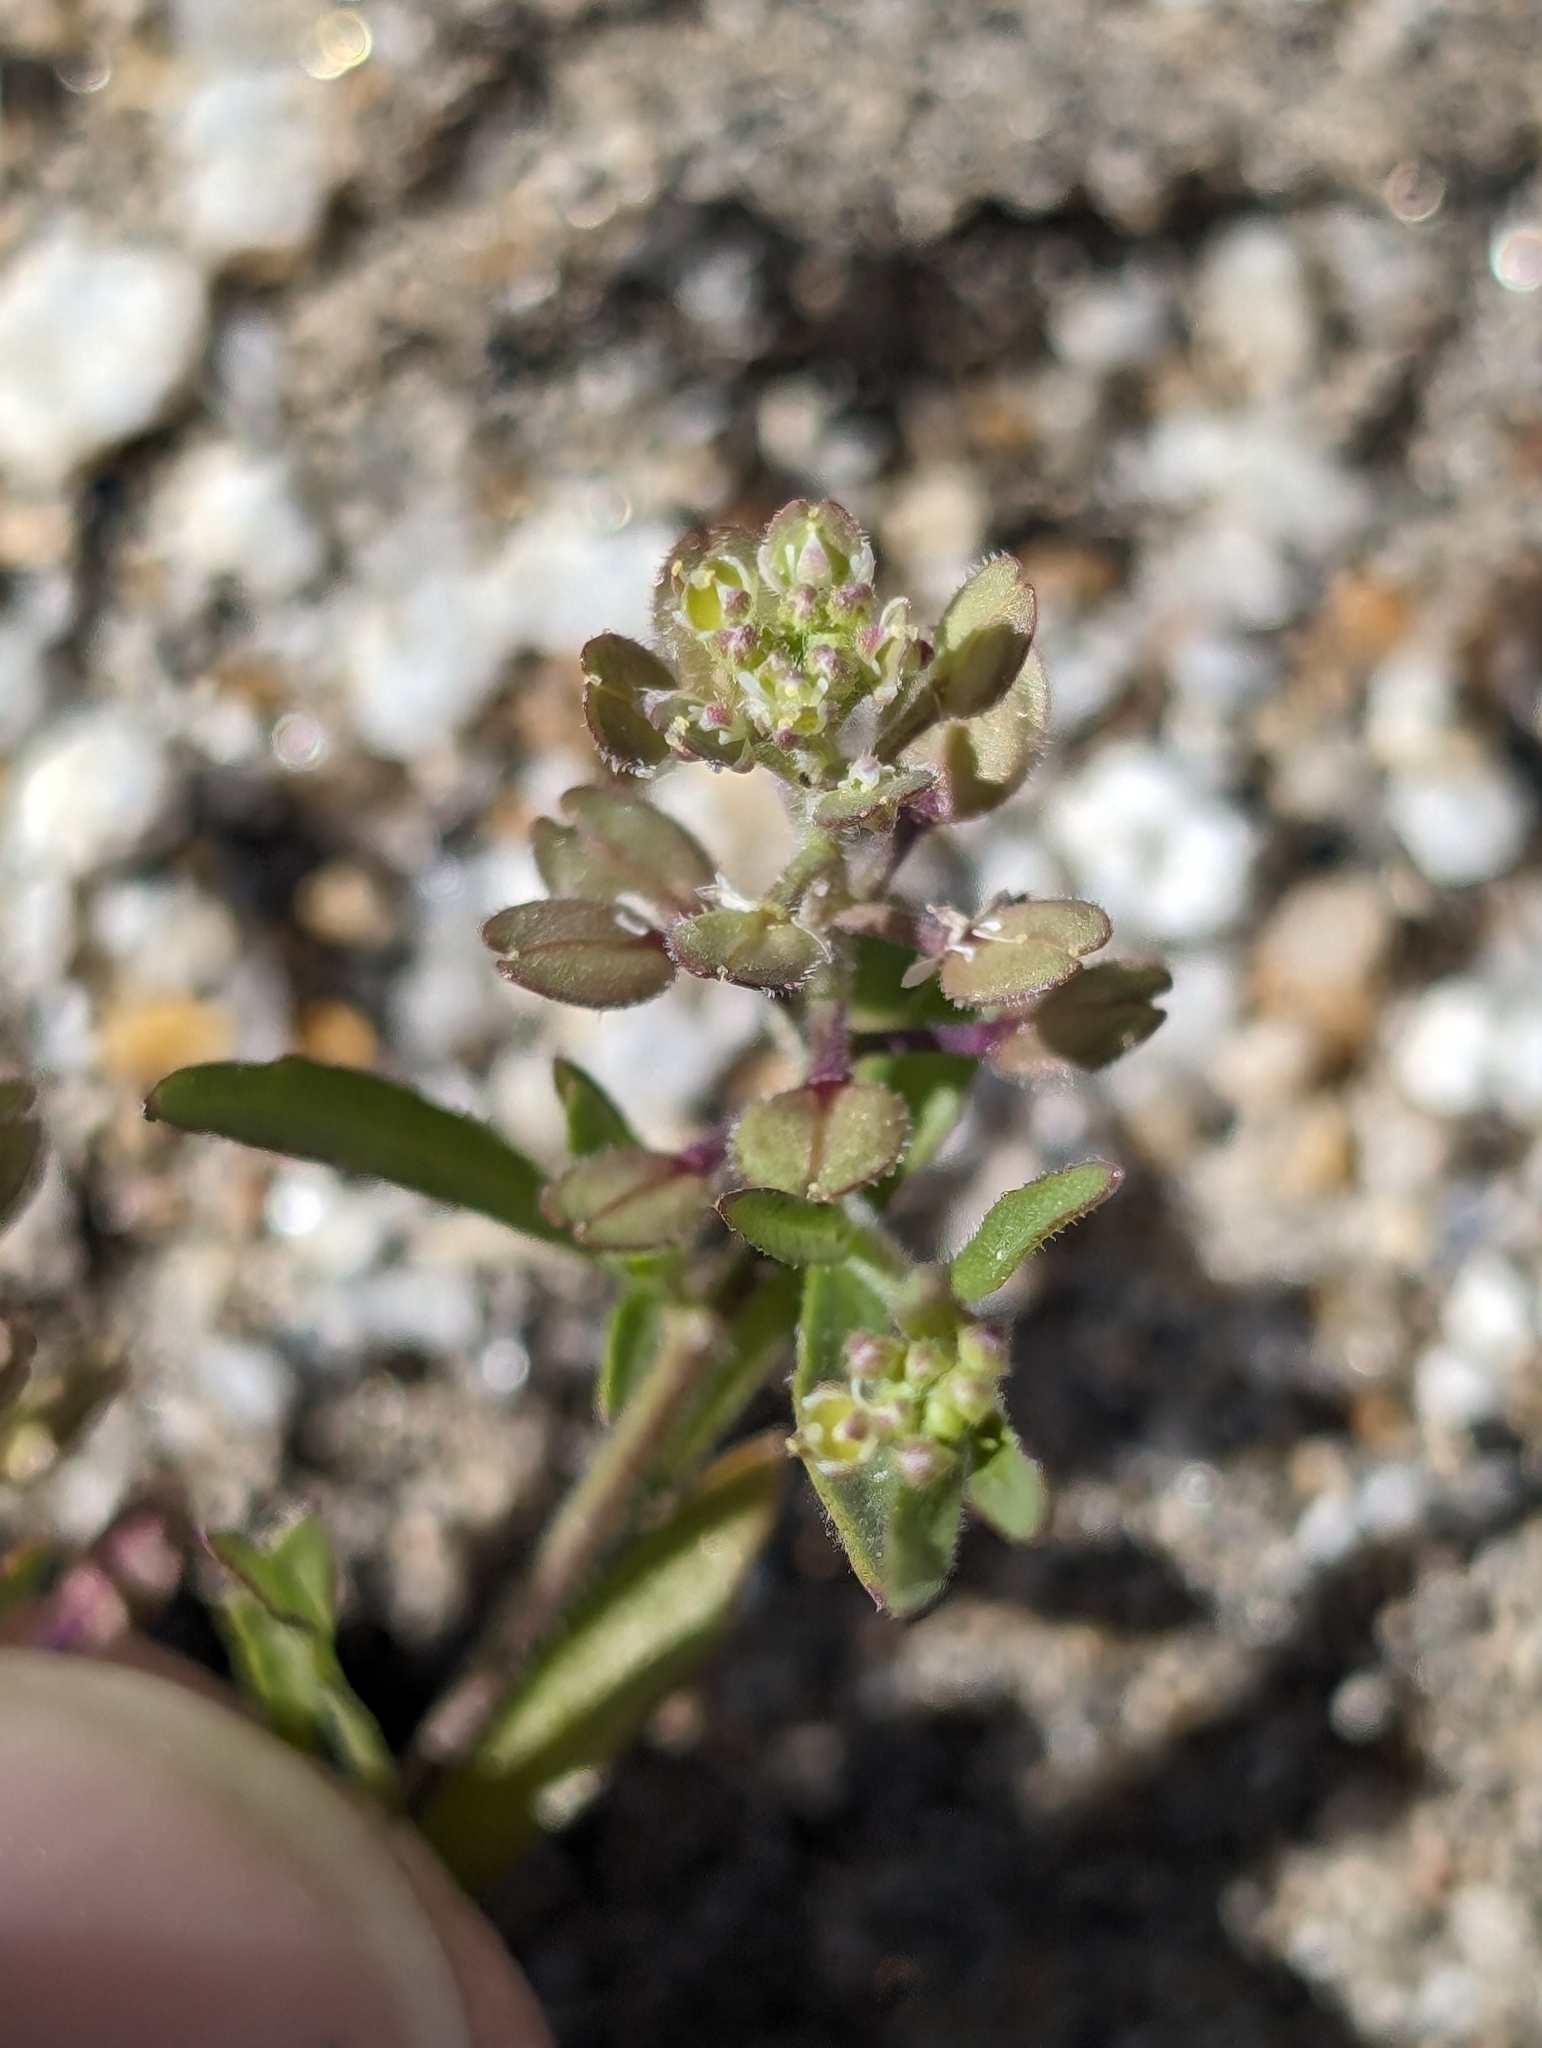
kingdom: Plantae
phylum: Tracheophyta
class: Magnoliopsida
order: Brassicales
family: Brassicaceae
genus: Lepidium
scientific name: Lepidium lasiocarpum
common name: Hairy-pod pepperwort
